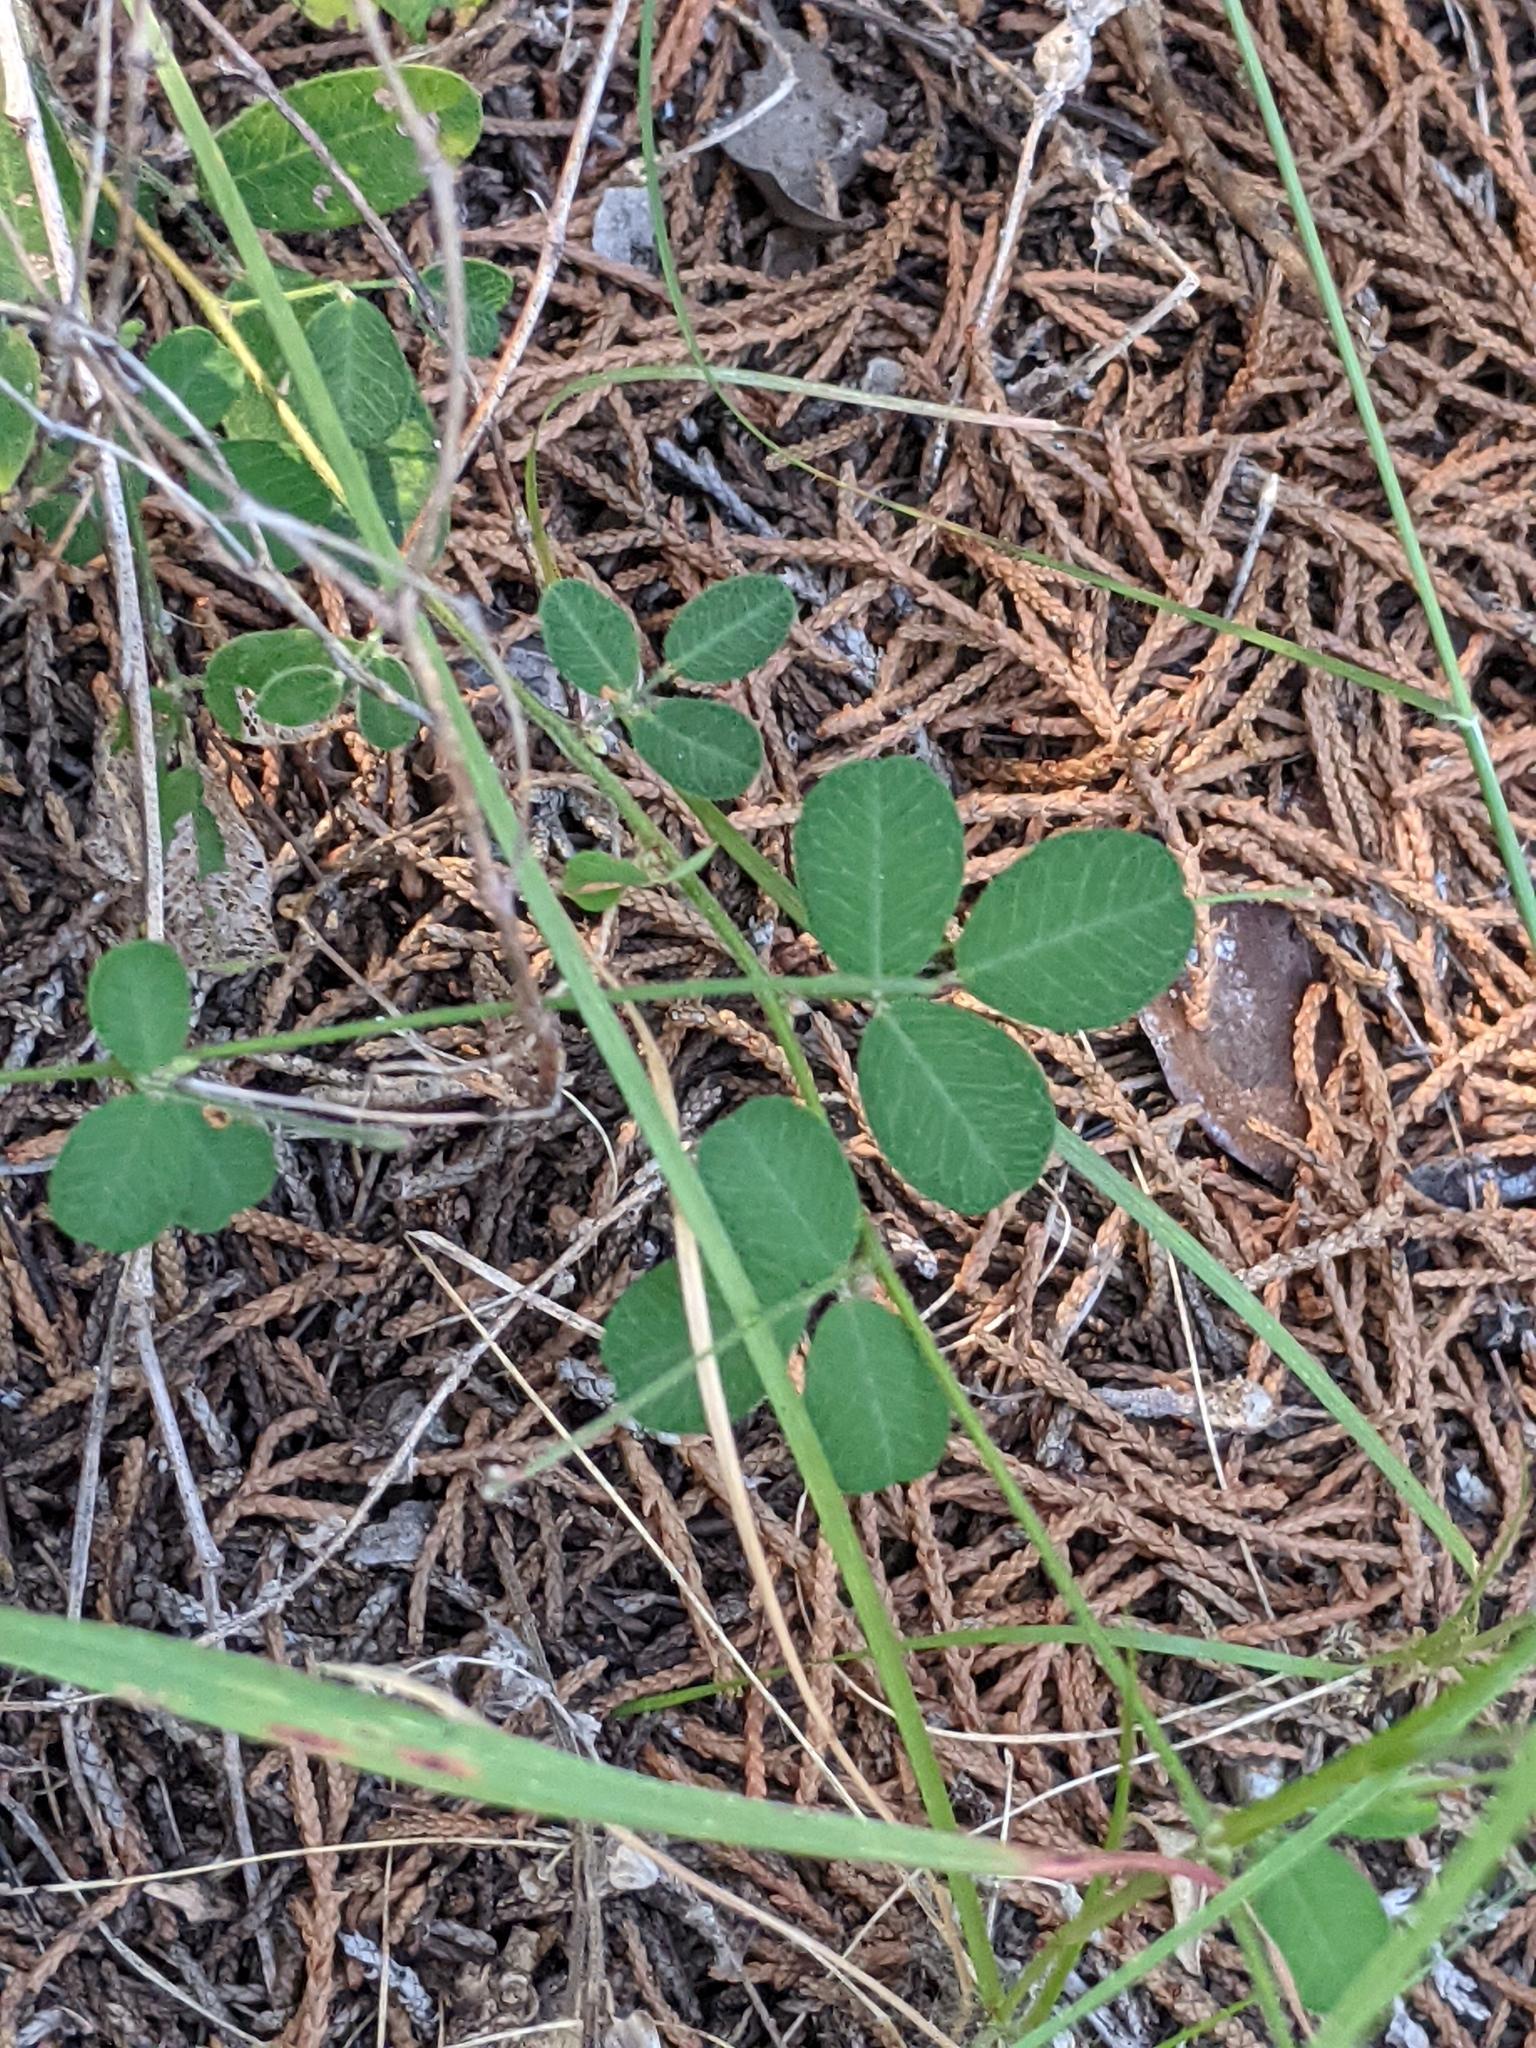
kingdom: Plantae
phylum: Tracheophyta
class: Magnoliopsida
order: Fabales
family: Fabaceae
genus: Lespedeza
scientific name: Lespedeza procumbens
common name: Downy trailing bush-clover
